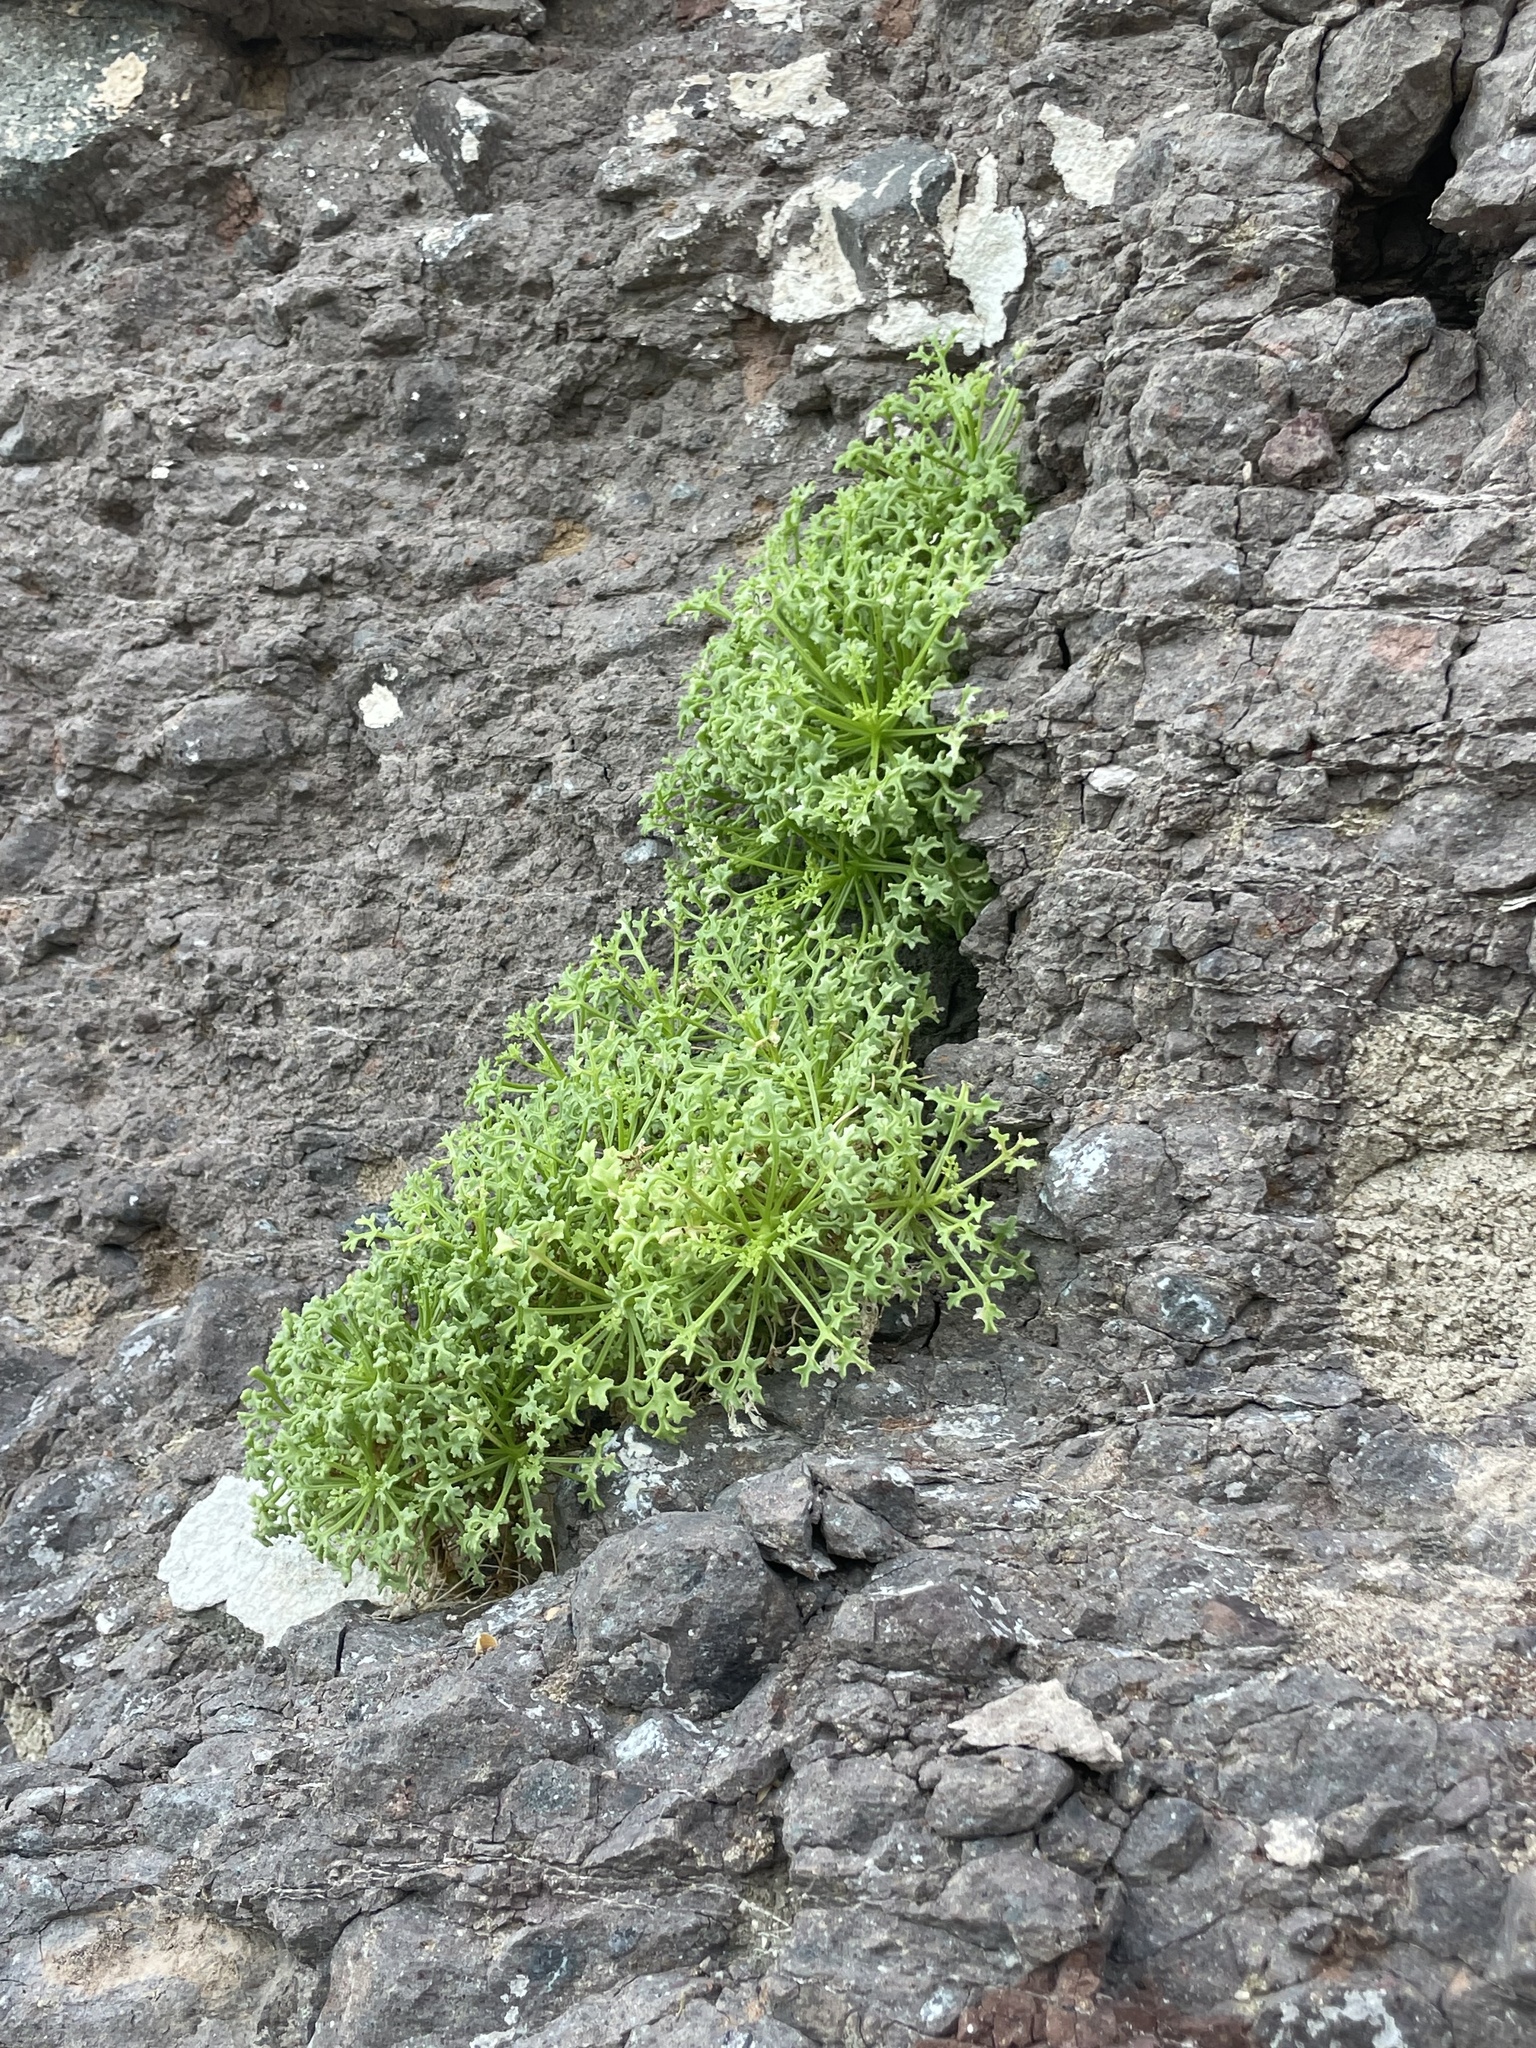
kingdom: Plantae
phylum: Tracheophyta
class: Magnoliopsida
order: Asterales
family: Asteraceae
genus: Hofmeisteria
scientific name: Hofmeisteria fasciculata
